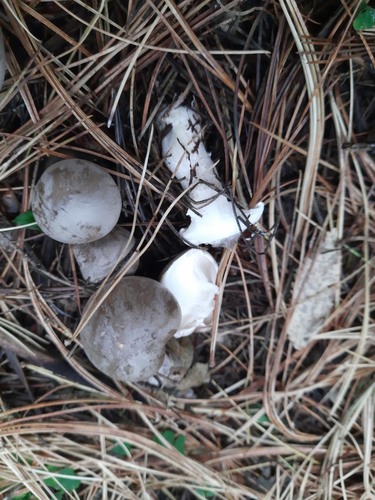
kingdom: Fungi
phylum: Basidiomycota
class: Agaricomycetes
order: Agaricales
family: Tricholomataceae
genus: Clitocybe
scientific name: Clitocybe nebularis
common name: Clouded agaric
